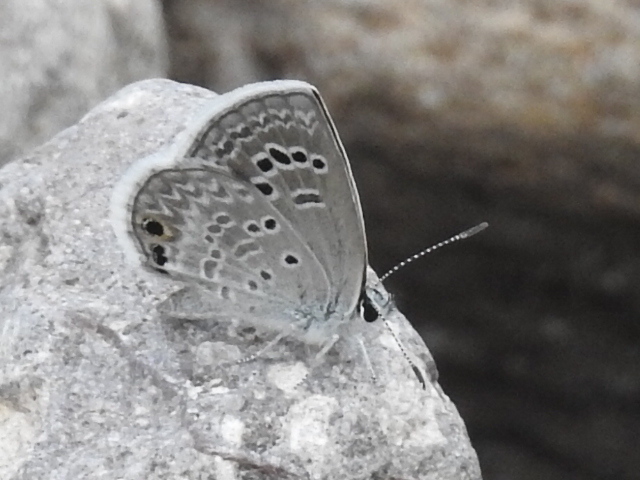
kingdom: Animalia
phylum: Arthropoda
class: Insecta
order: Lepidoptera
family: Lycaenidae
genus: Echinargus
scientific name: Echinargus isola
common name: Reakirt's blue
